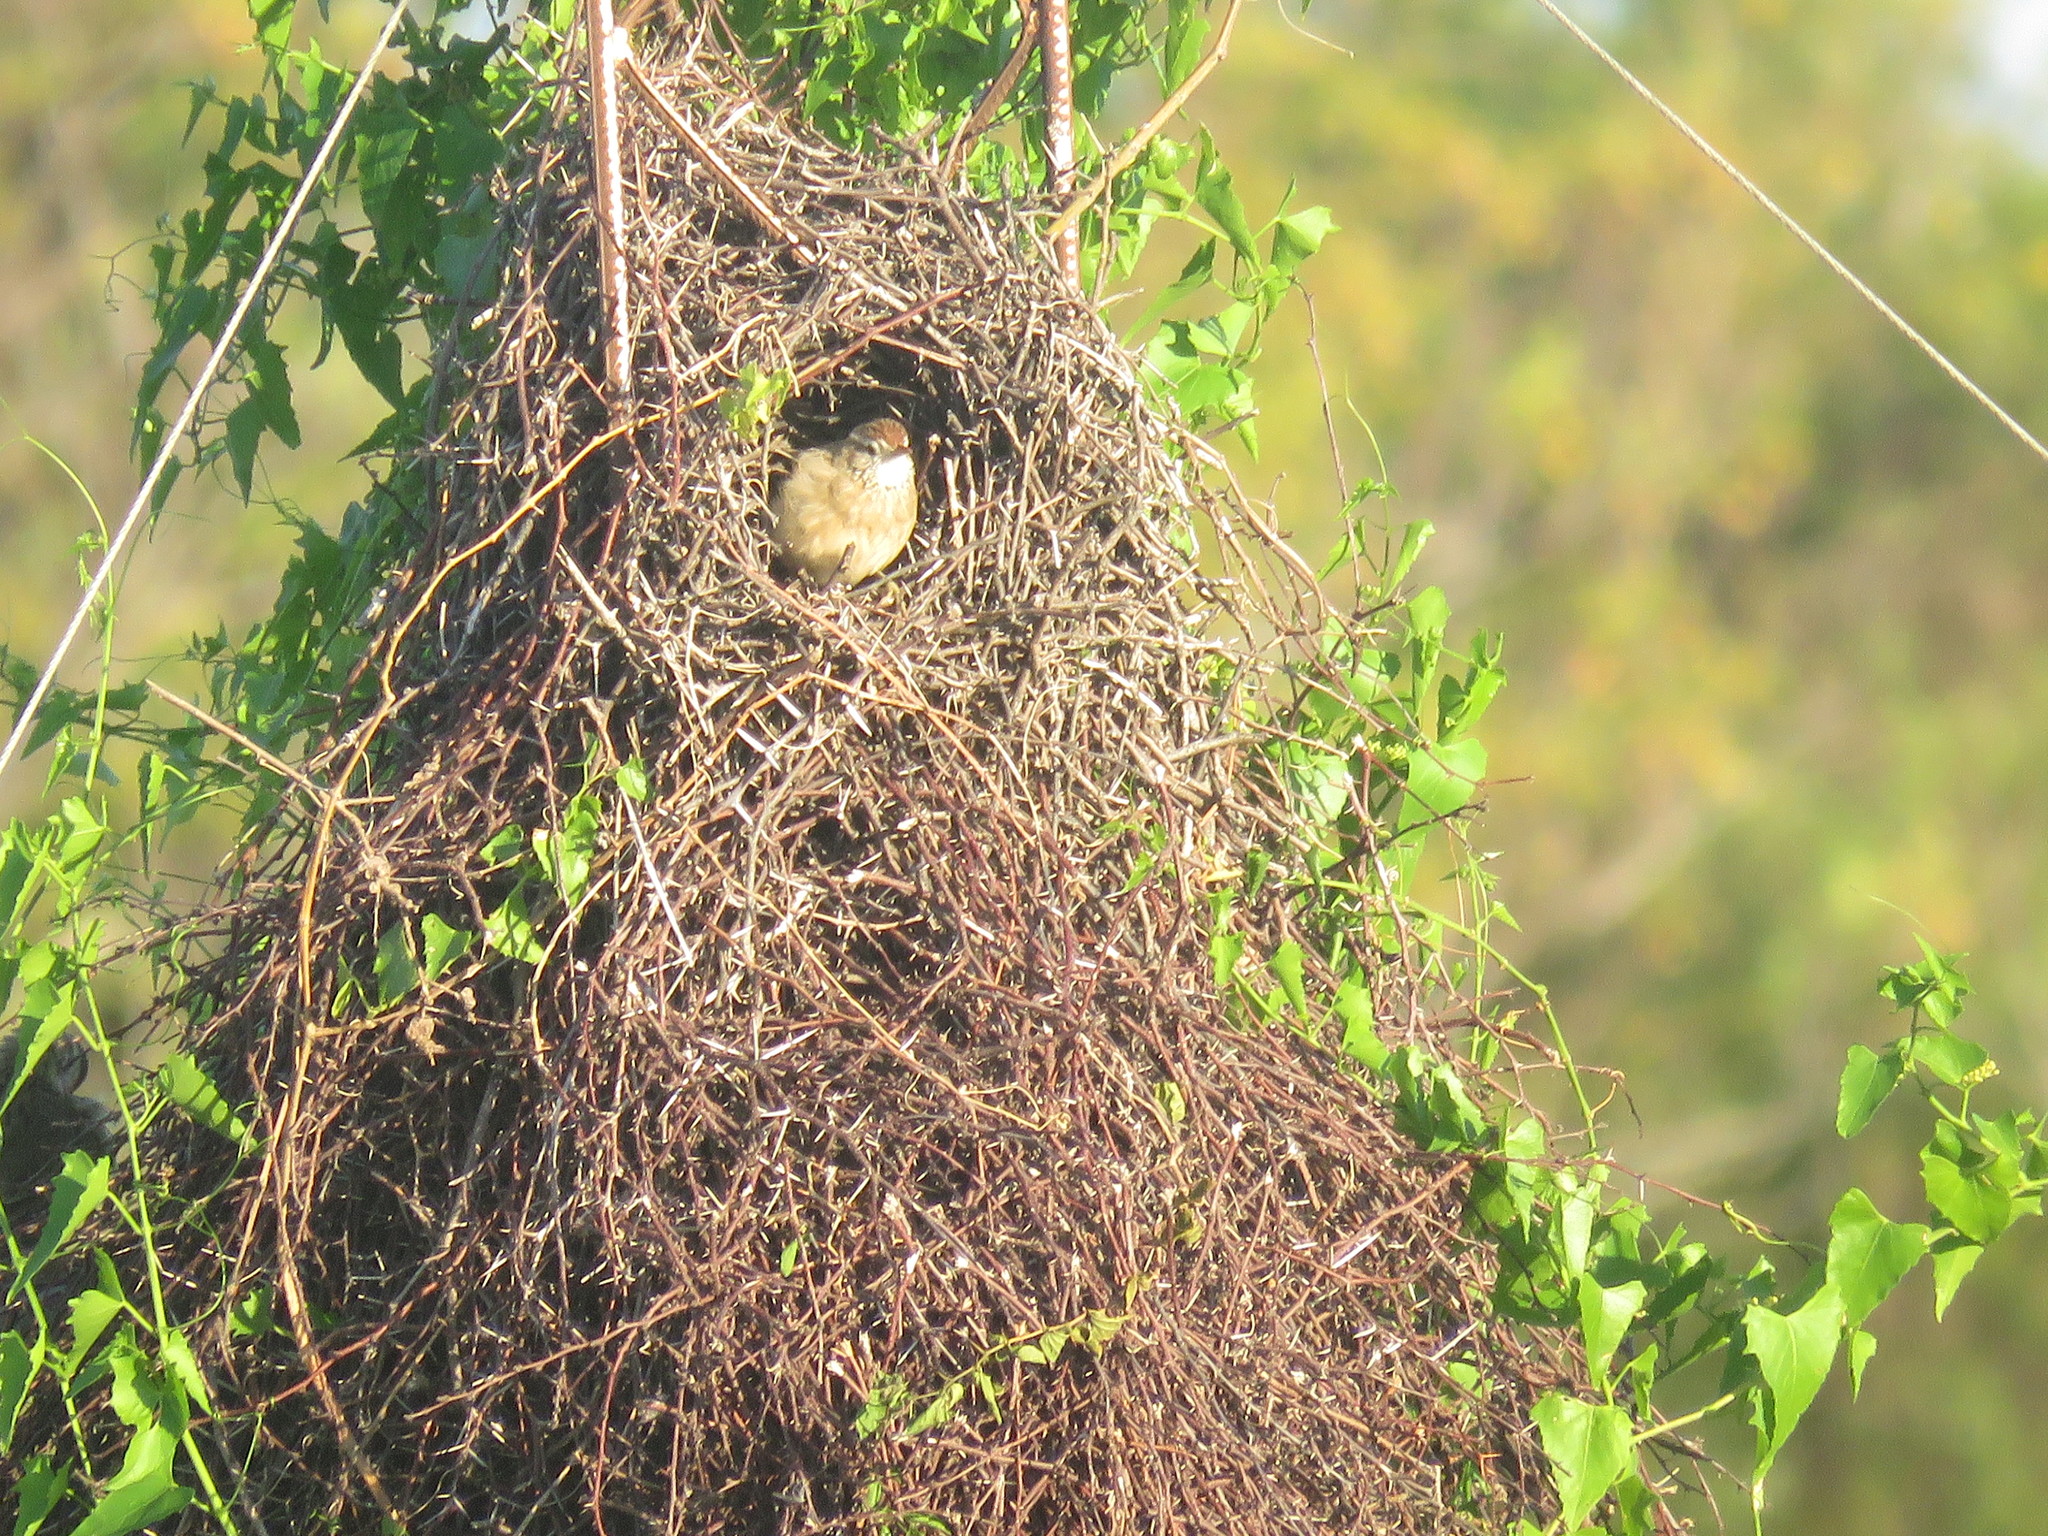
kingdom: Animalia
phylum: Chordata
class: Aves
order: Passeriformes
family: Furnariidae
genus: Anumbius
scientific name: Anumbius annumbi
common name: Firewood-gatherer
